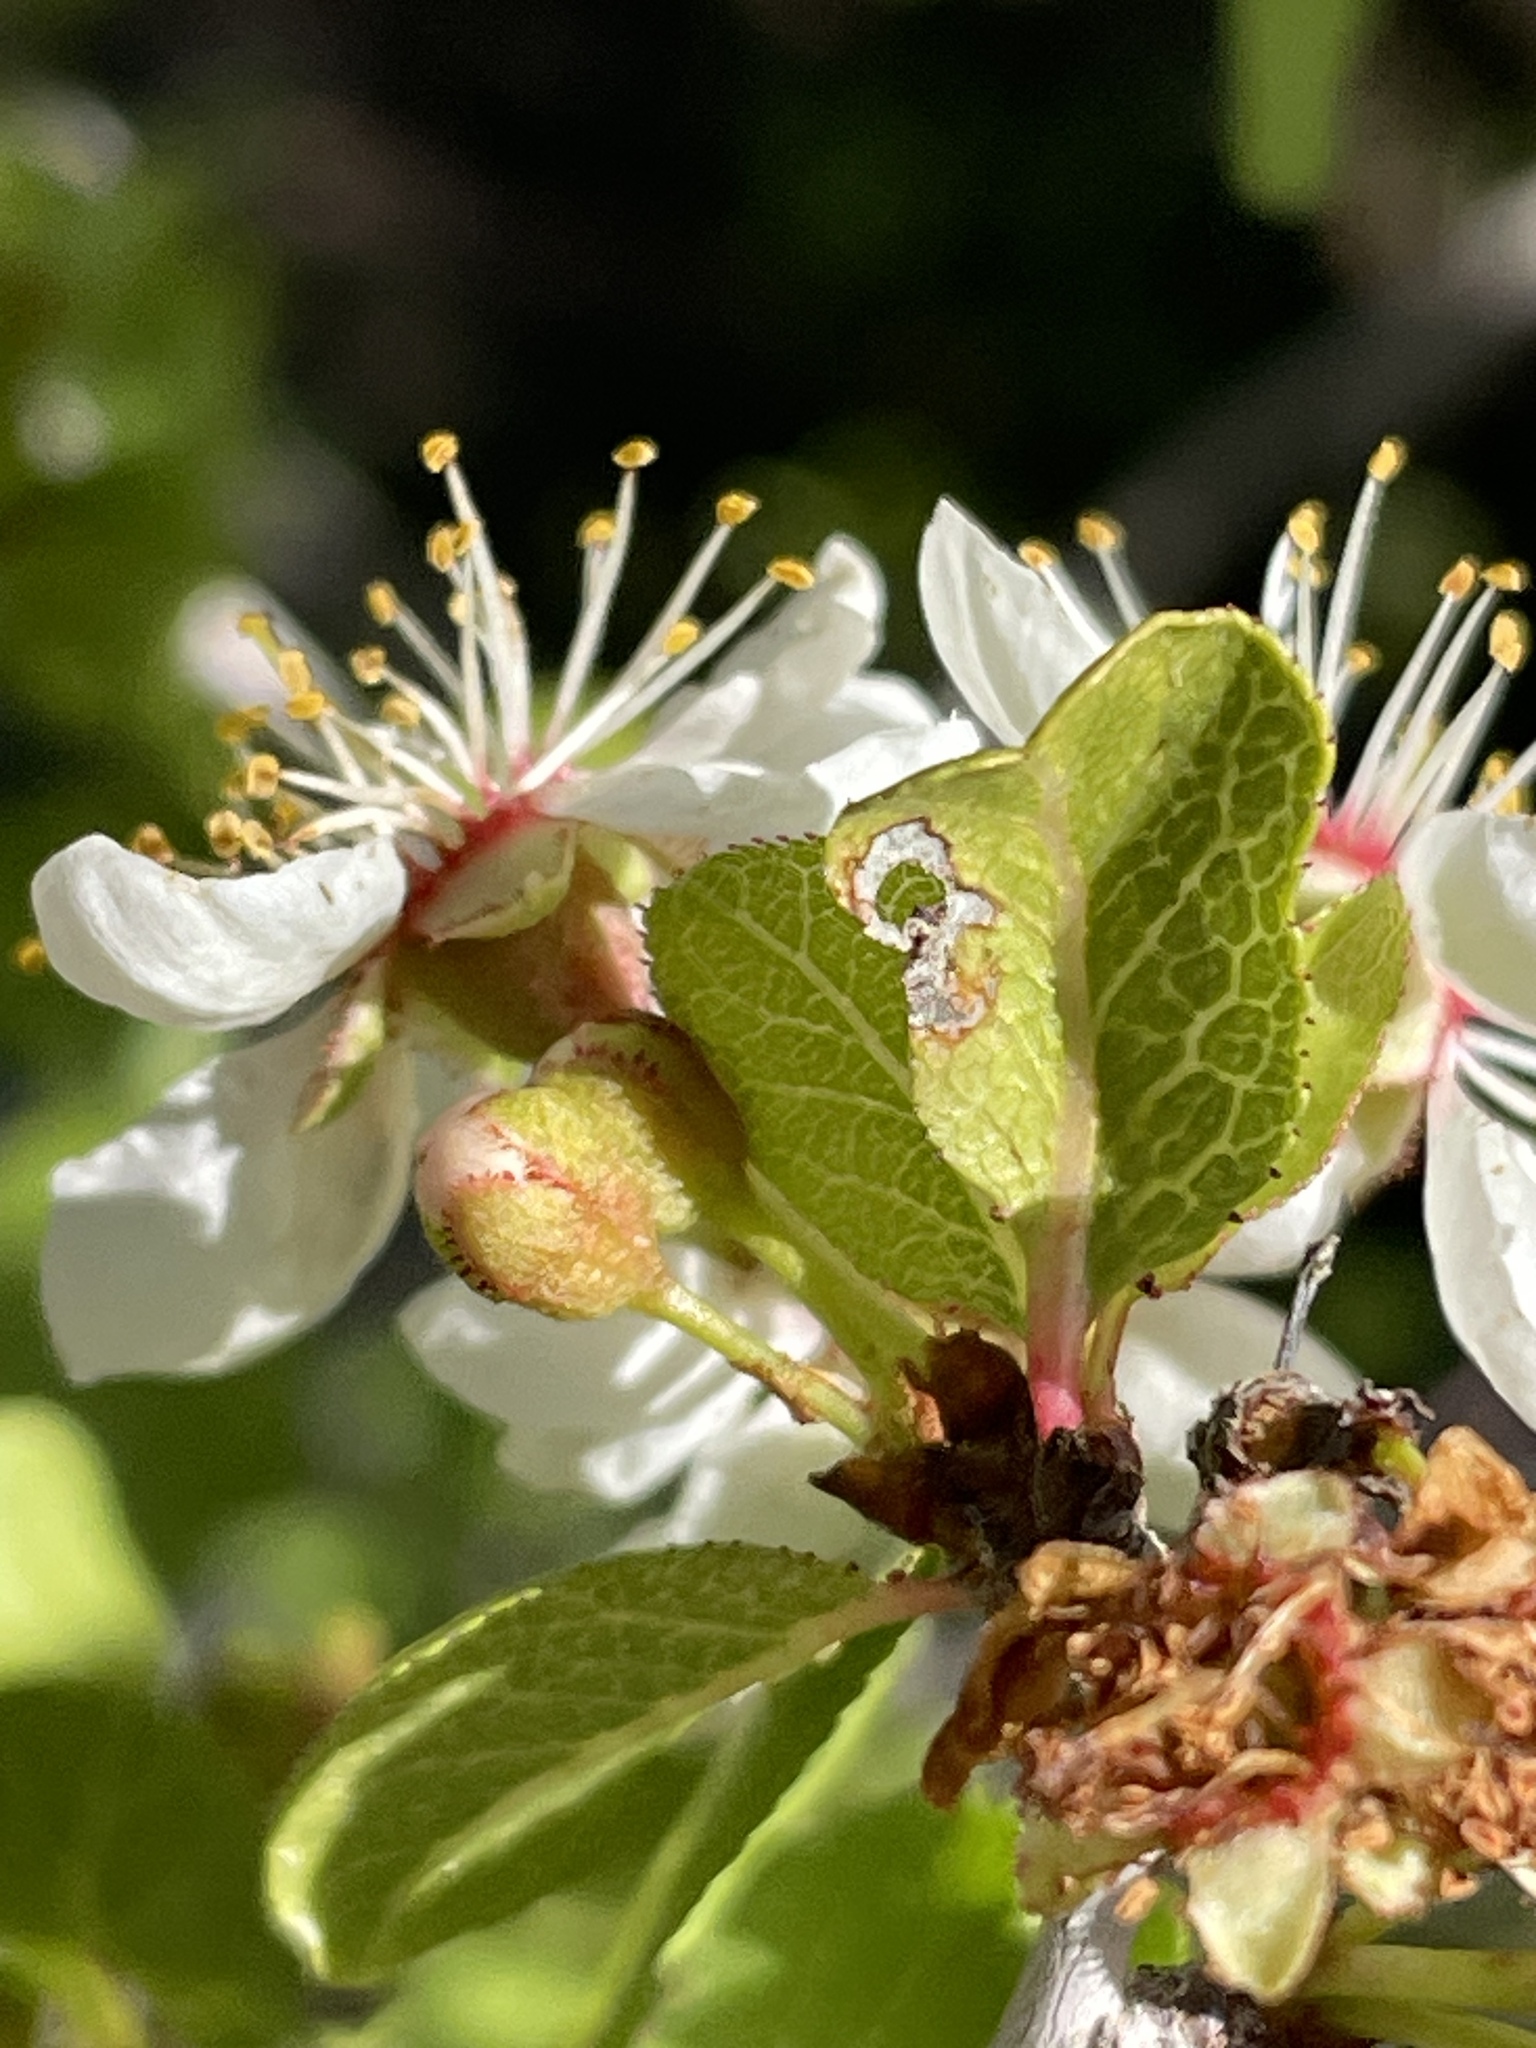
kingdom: Plantae
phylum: Tracheophyta
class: Magnoliopsida
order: Rosales
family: Rosaceae
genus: Prunus
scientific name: Prunus fremontii
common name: Desert apricot
